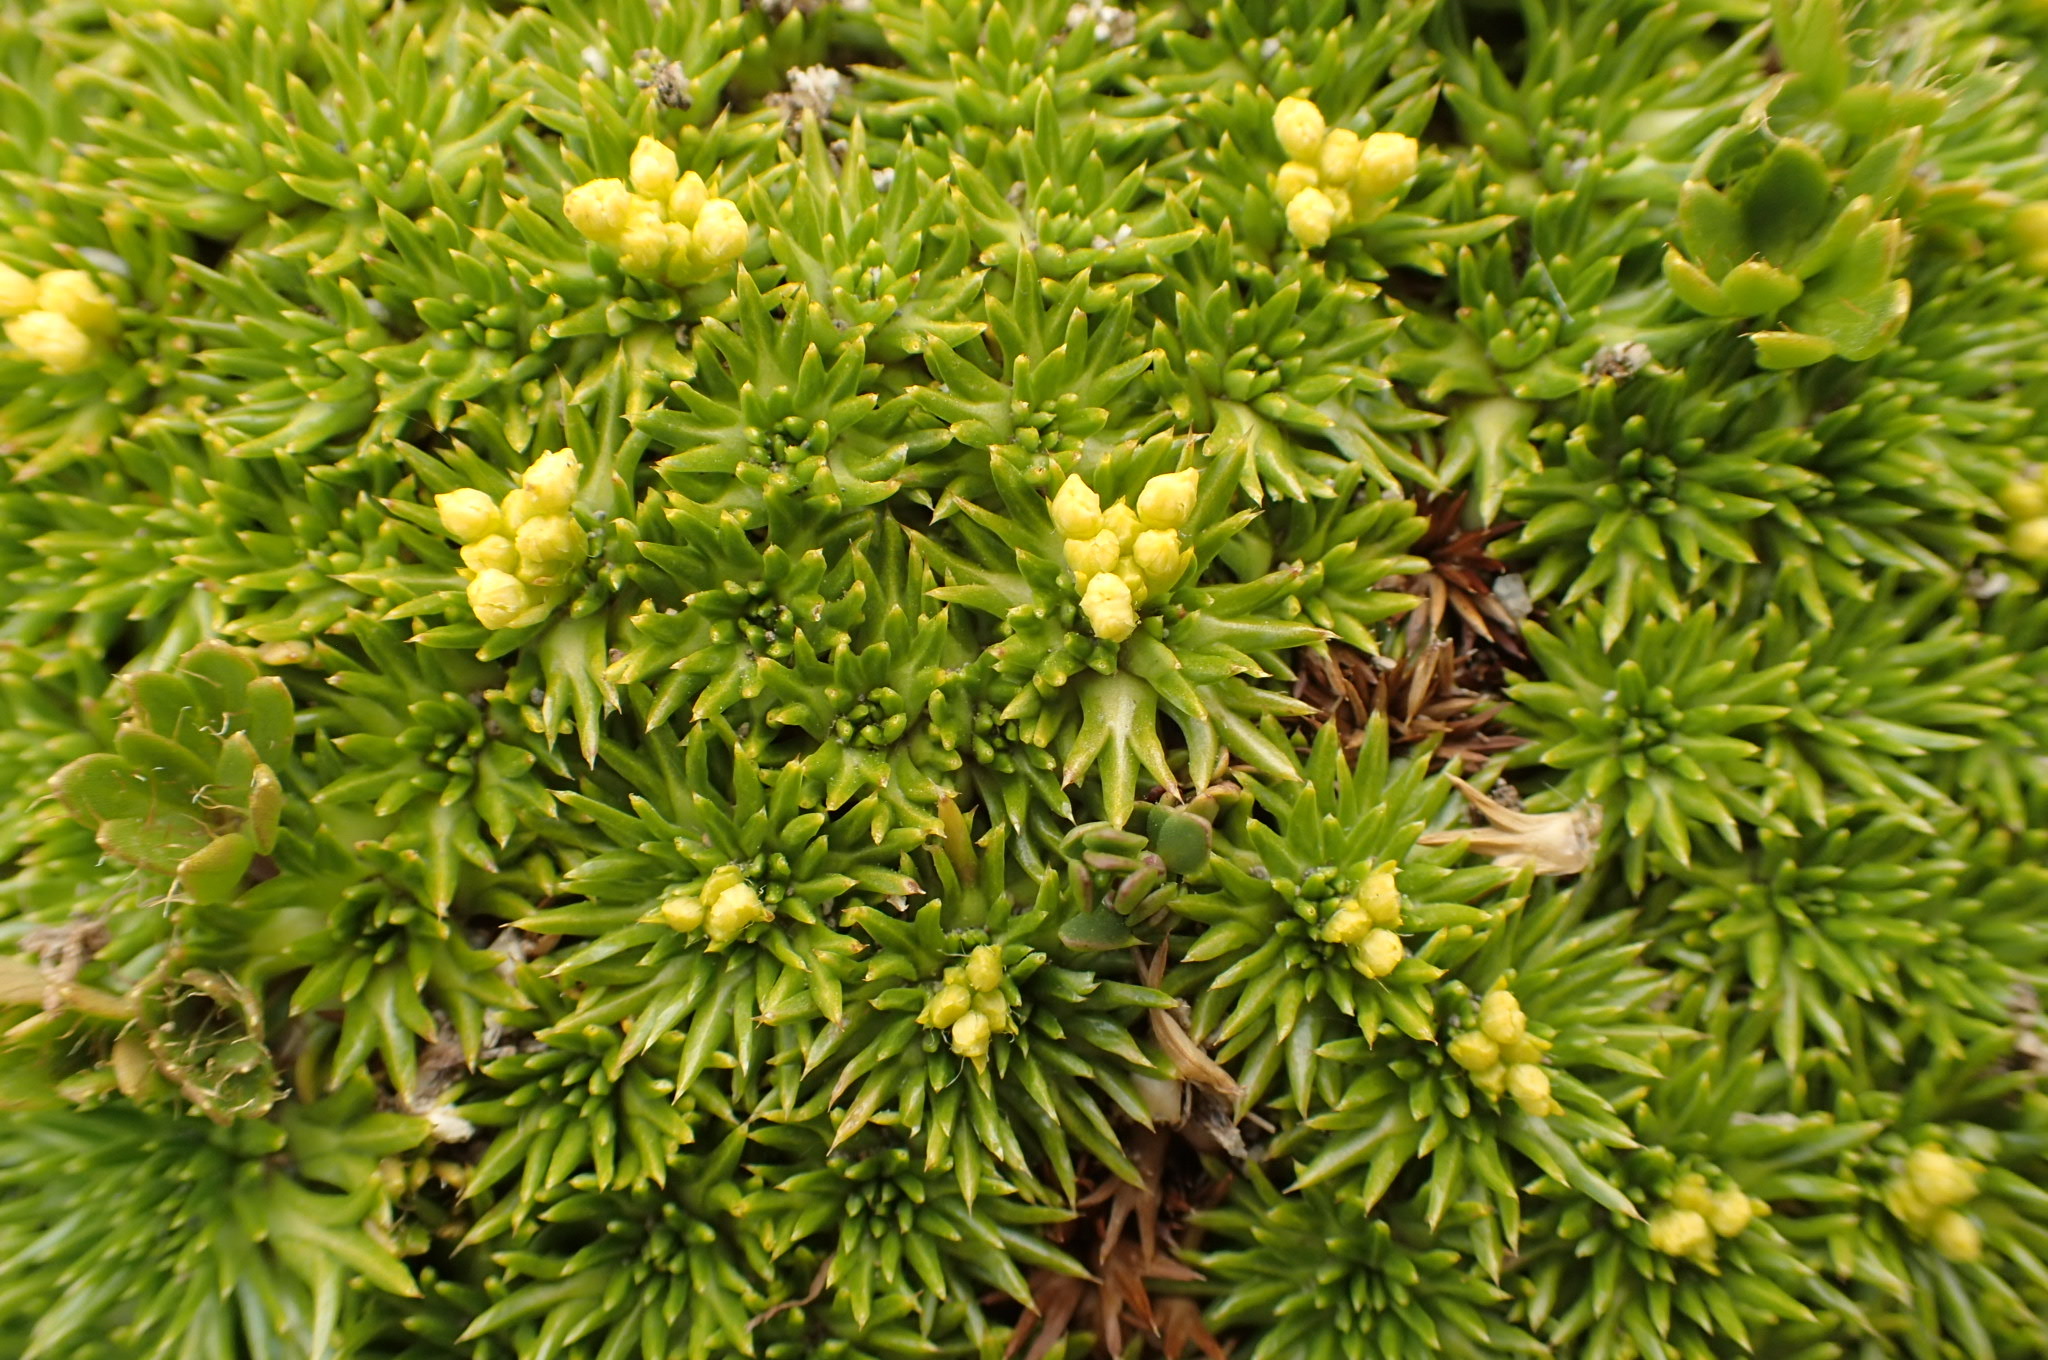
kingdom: Plantae
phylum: Tracheophyta
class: Magnoliopsida
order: Apiales
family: Apiaceae
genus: Azorella
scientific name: Azorella trifurcata
